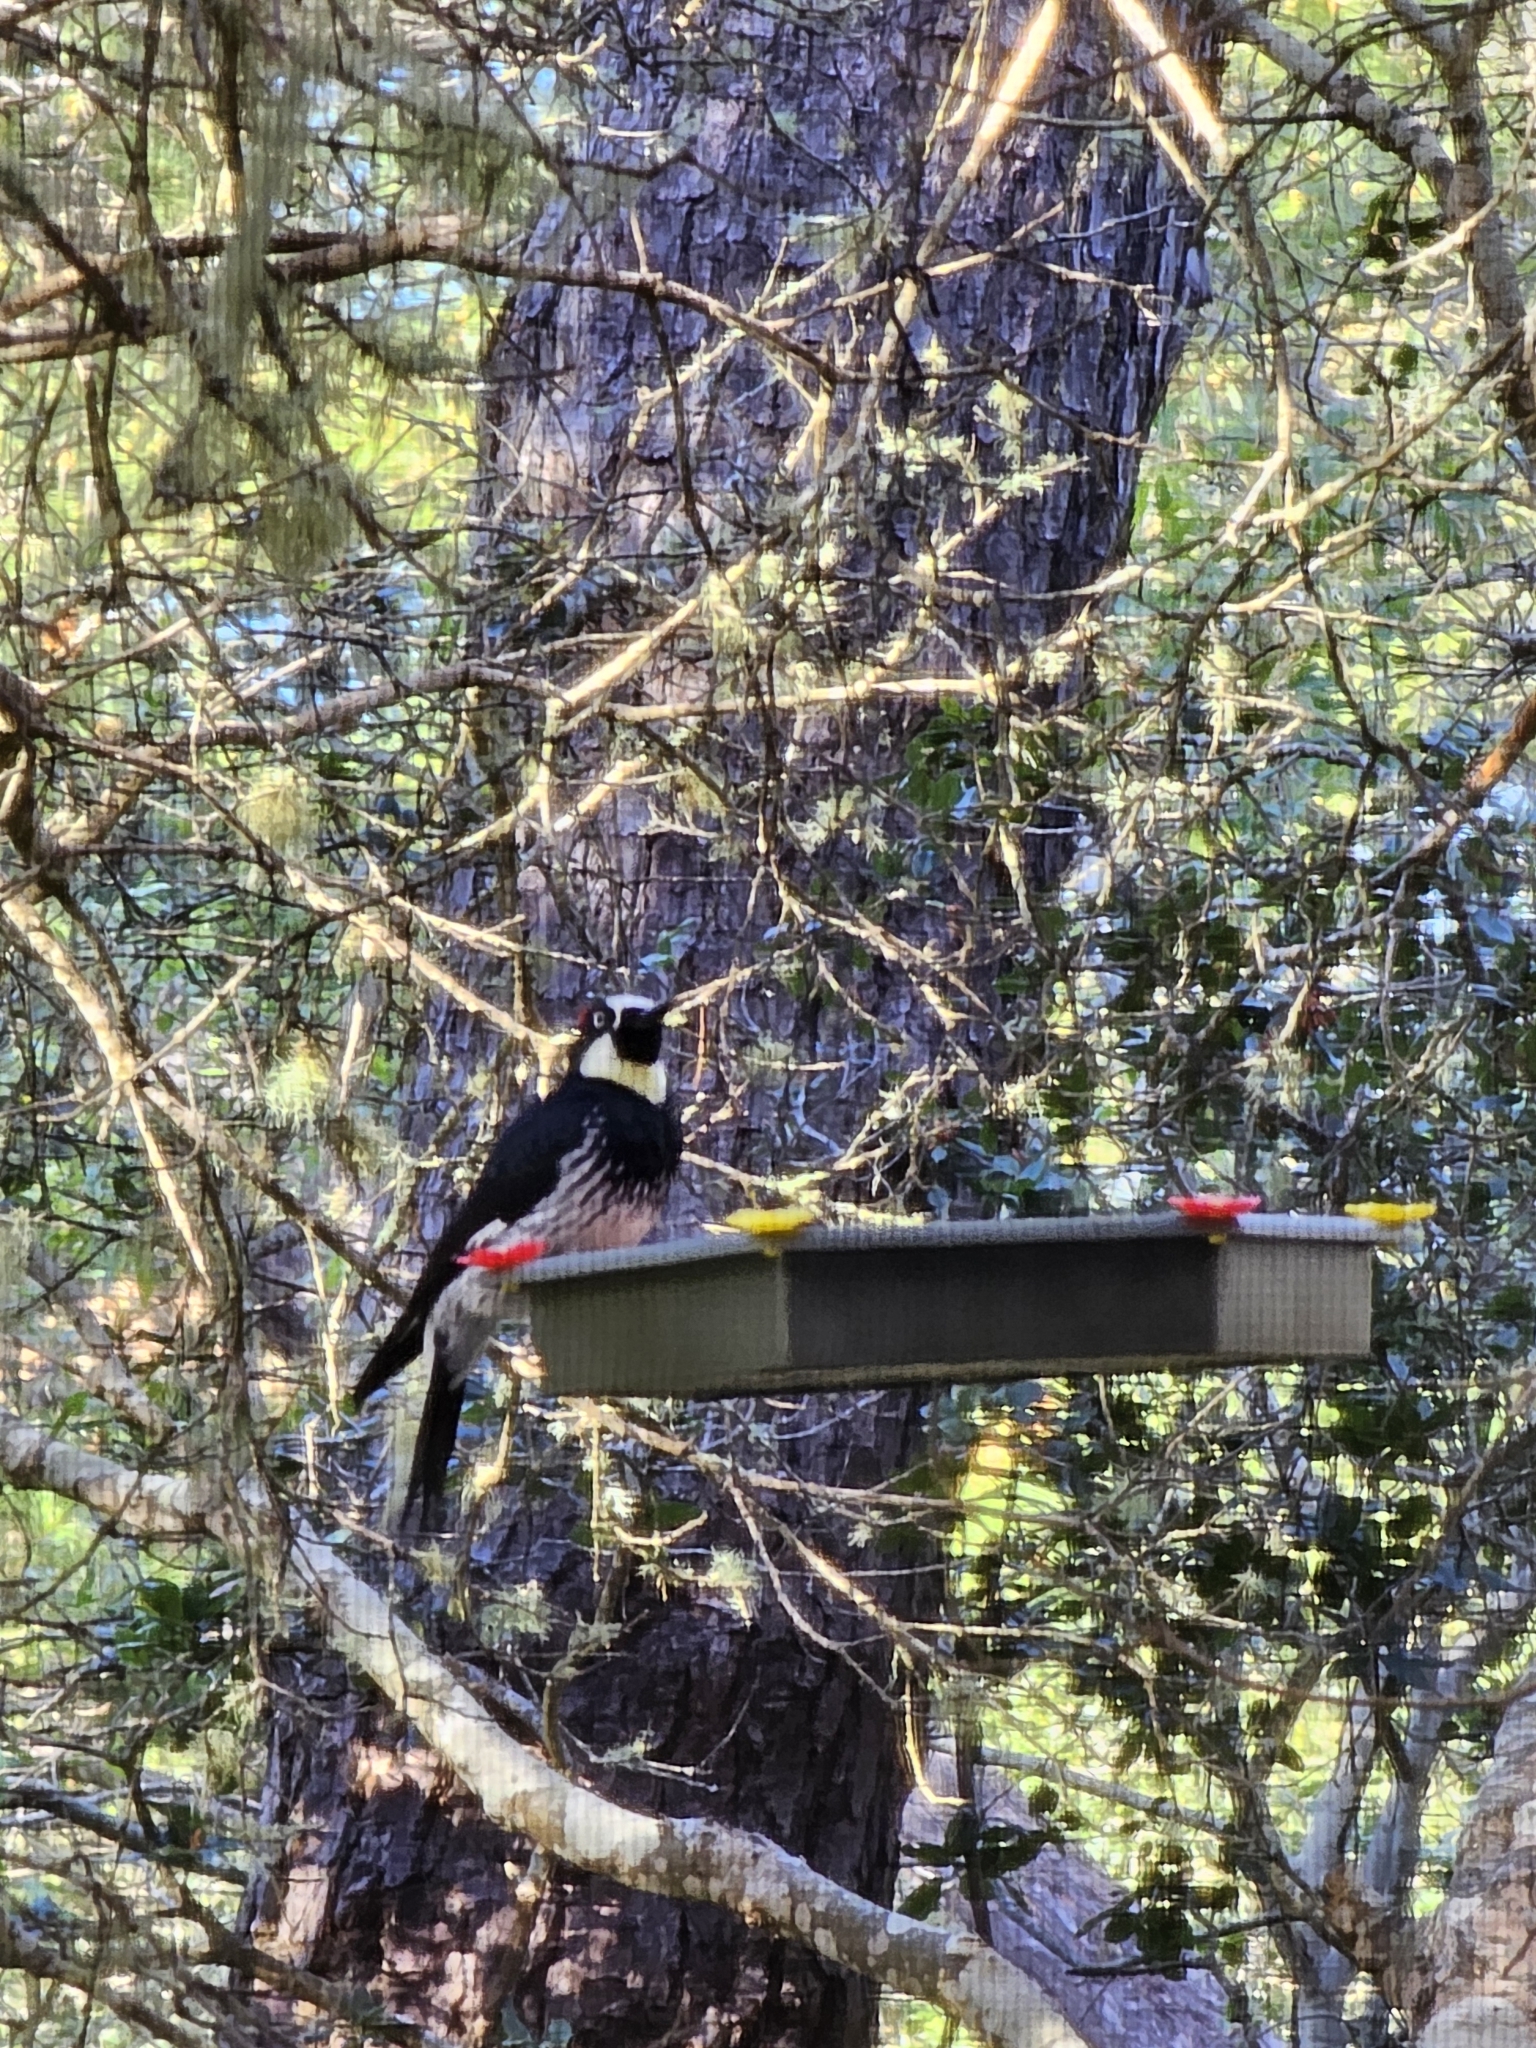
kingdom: Animalia
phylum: Chordata
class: Aves
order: Piciformes
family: Picidae
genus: Melanerpes
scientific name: Melanerpes formicivorus
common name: Acorn woodpecker
